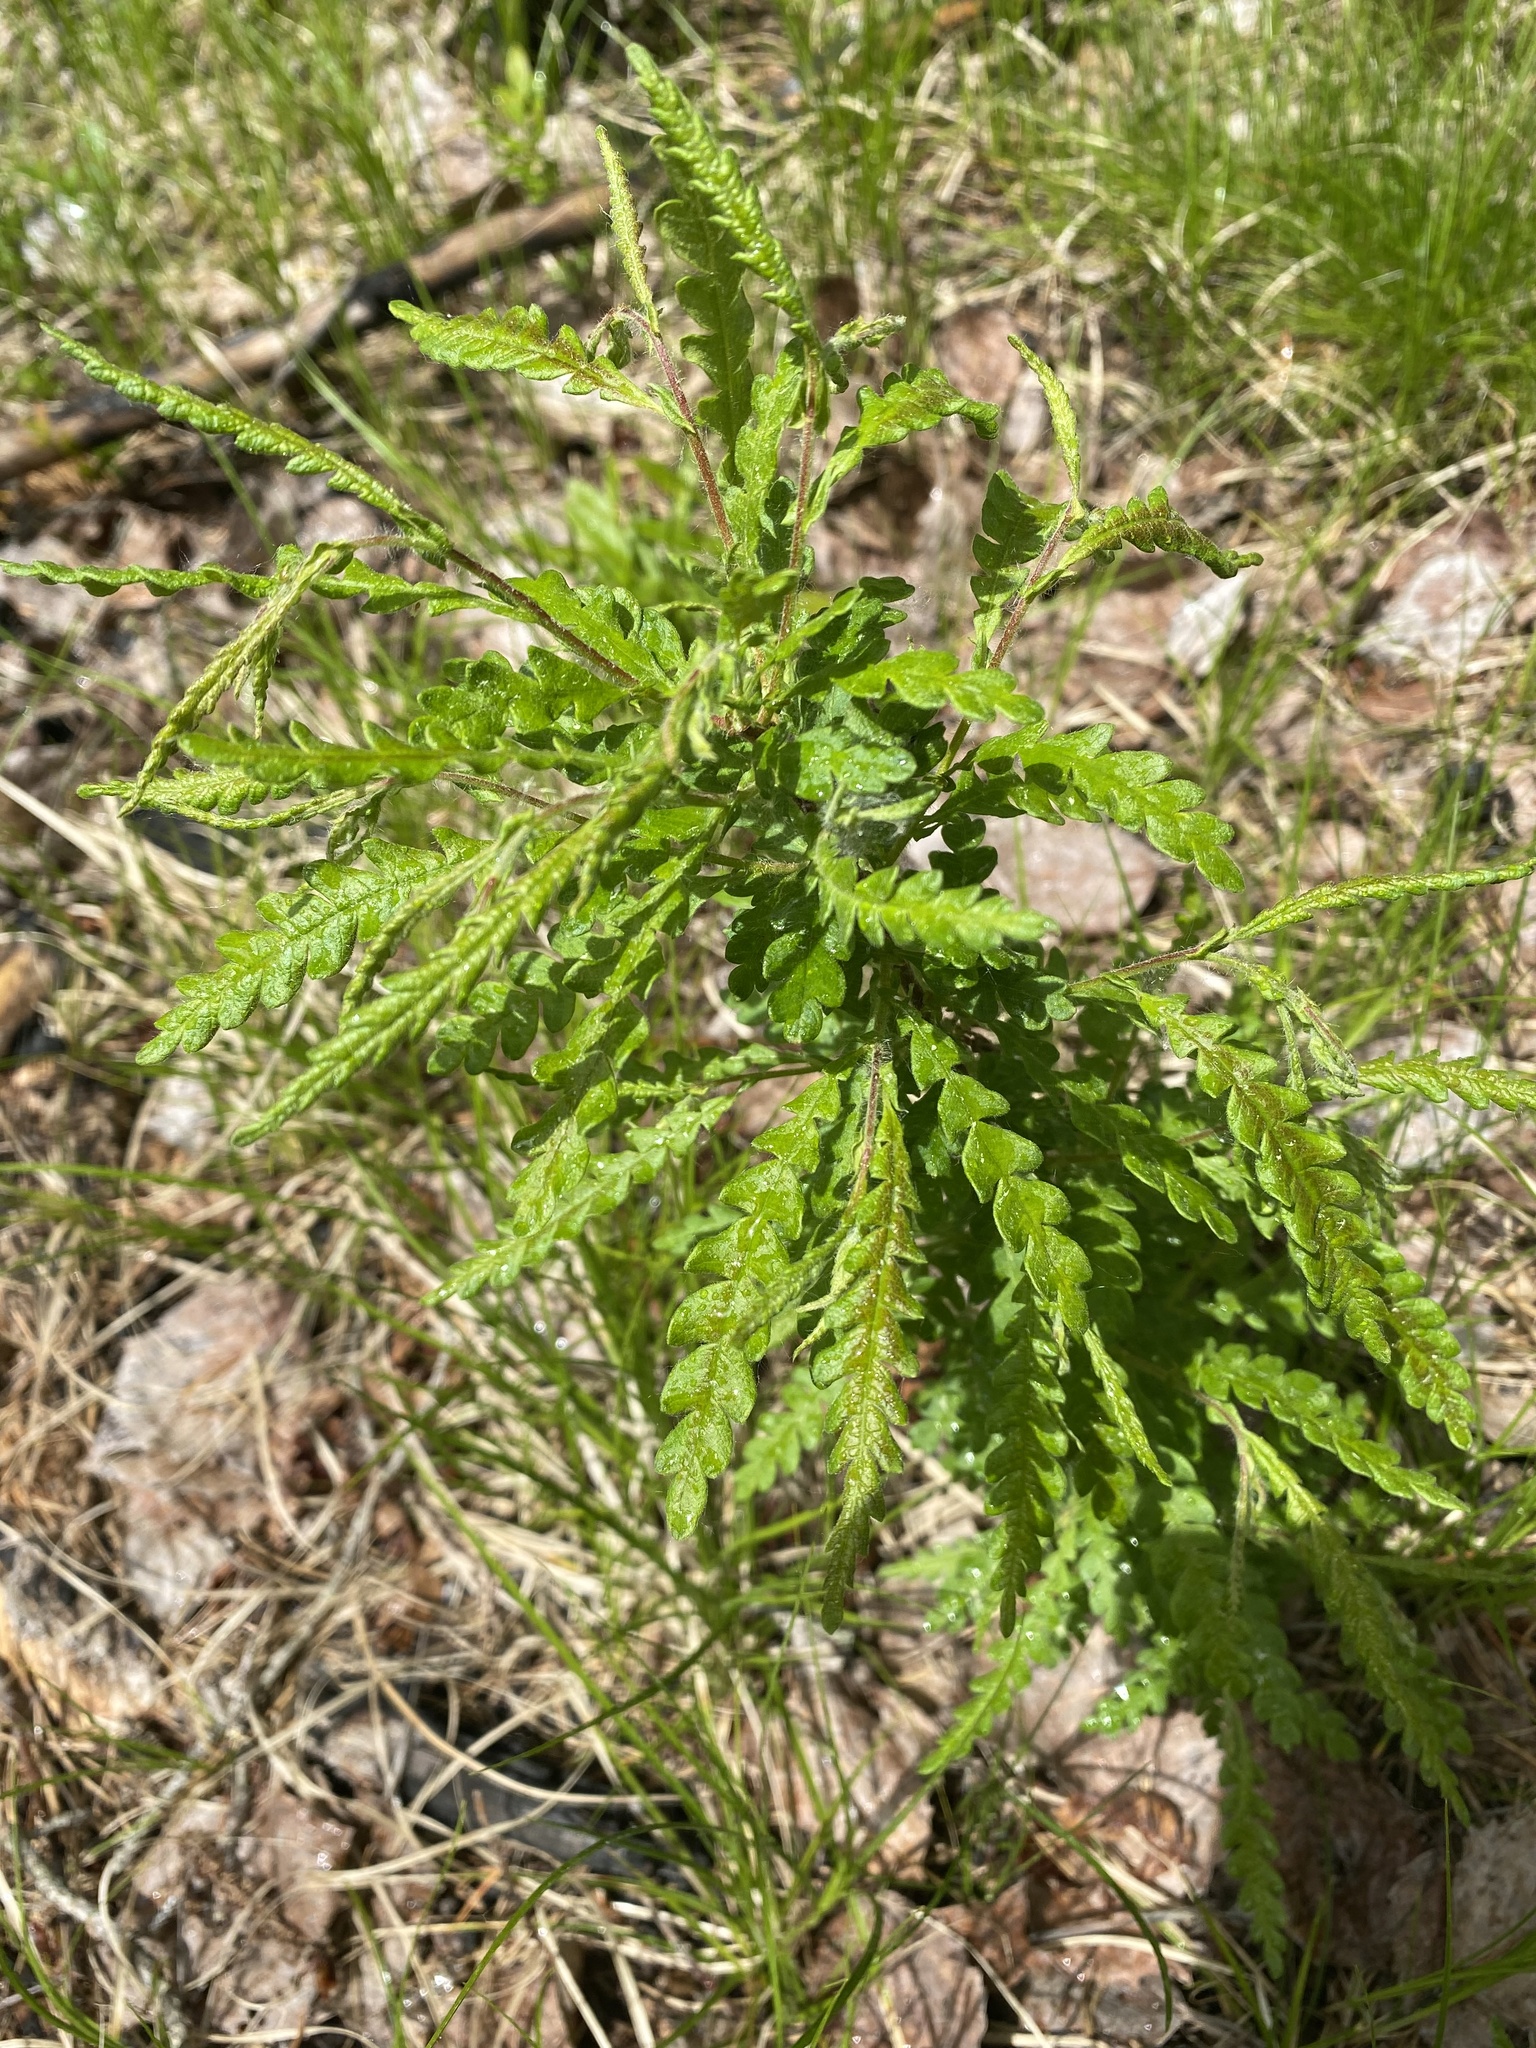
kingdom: Plantae
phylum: Tracheophyta
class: Magnoliopsida
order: Fagales
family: Myricaceae
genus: Comptonia
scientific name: Comptonia peregrina
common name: Sweet-fern
